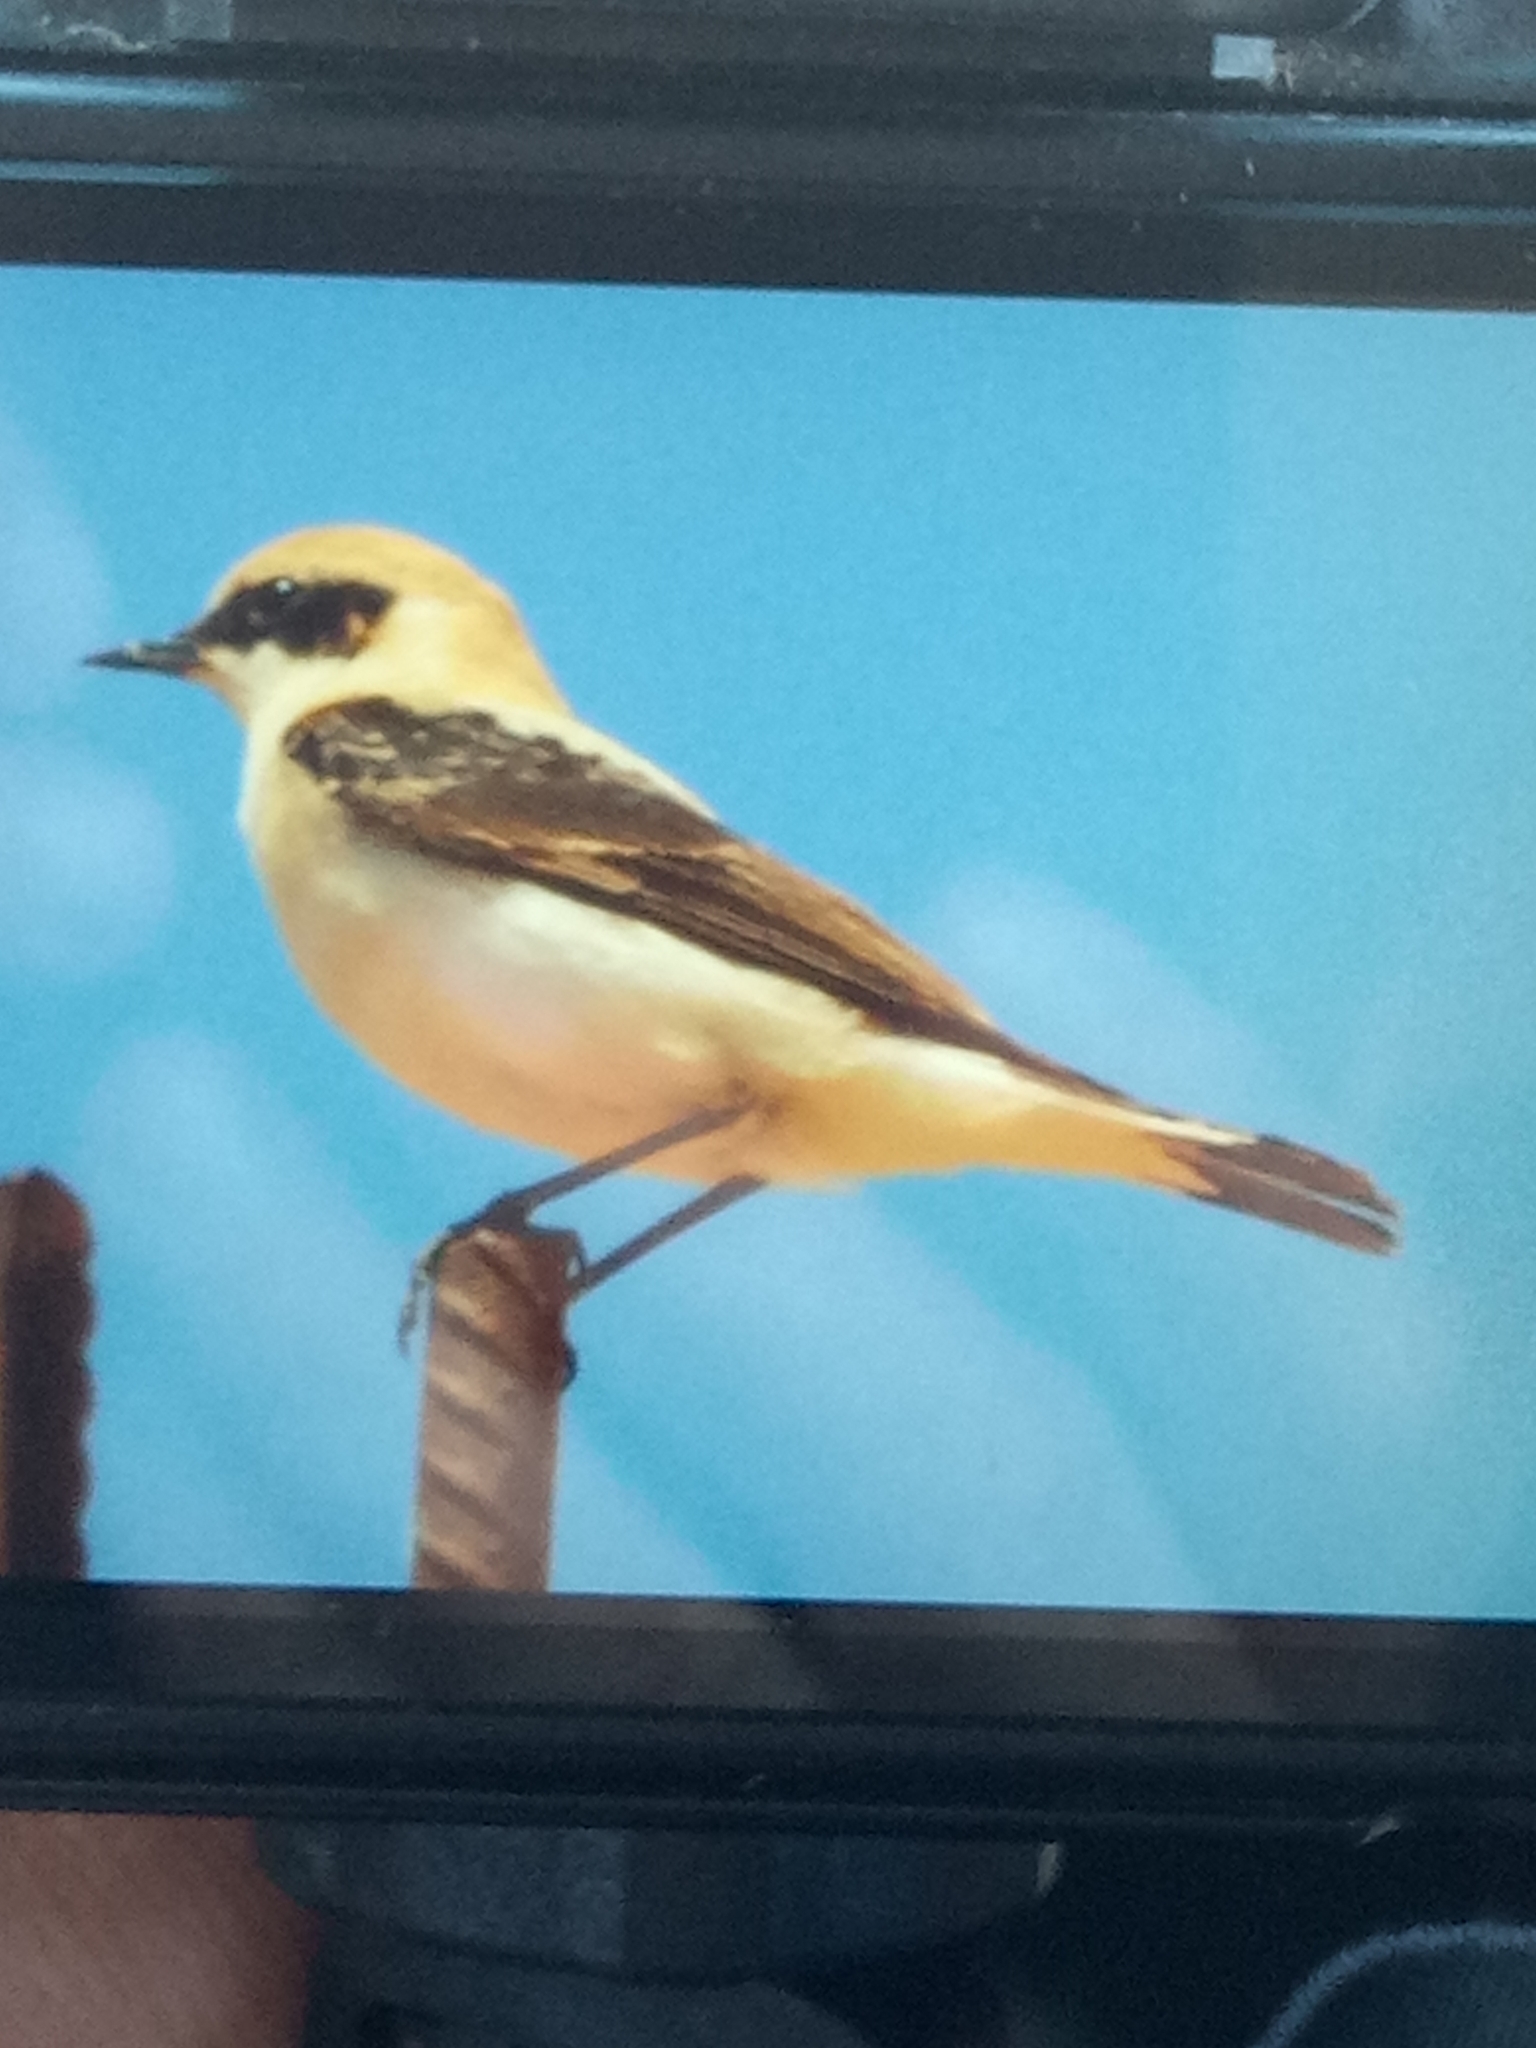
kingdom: Animalia
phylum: Chordata
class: Aves
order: Passeriformes
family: Muscicapidae
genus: Oenanthe
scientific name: Oenanthe hispanica
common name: Black-eared wheatear
